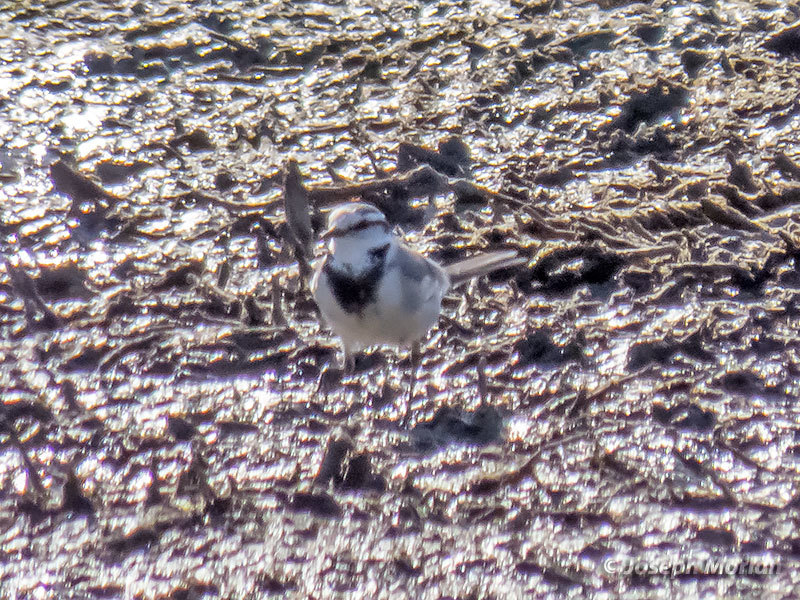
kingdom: Animalia
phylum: Chordata
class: Aves
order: Passeriformes
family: Motacillidae
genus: Motacilla
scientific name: Motacilla alba
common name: White wagtail
